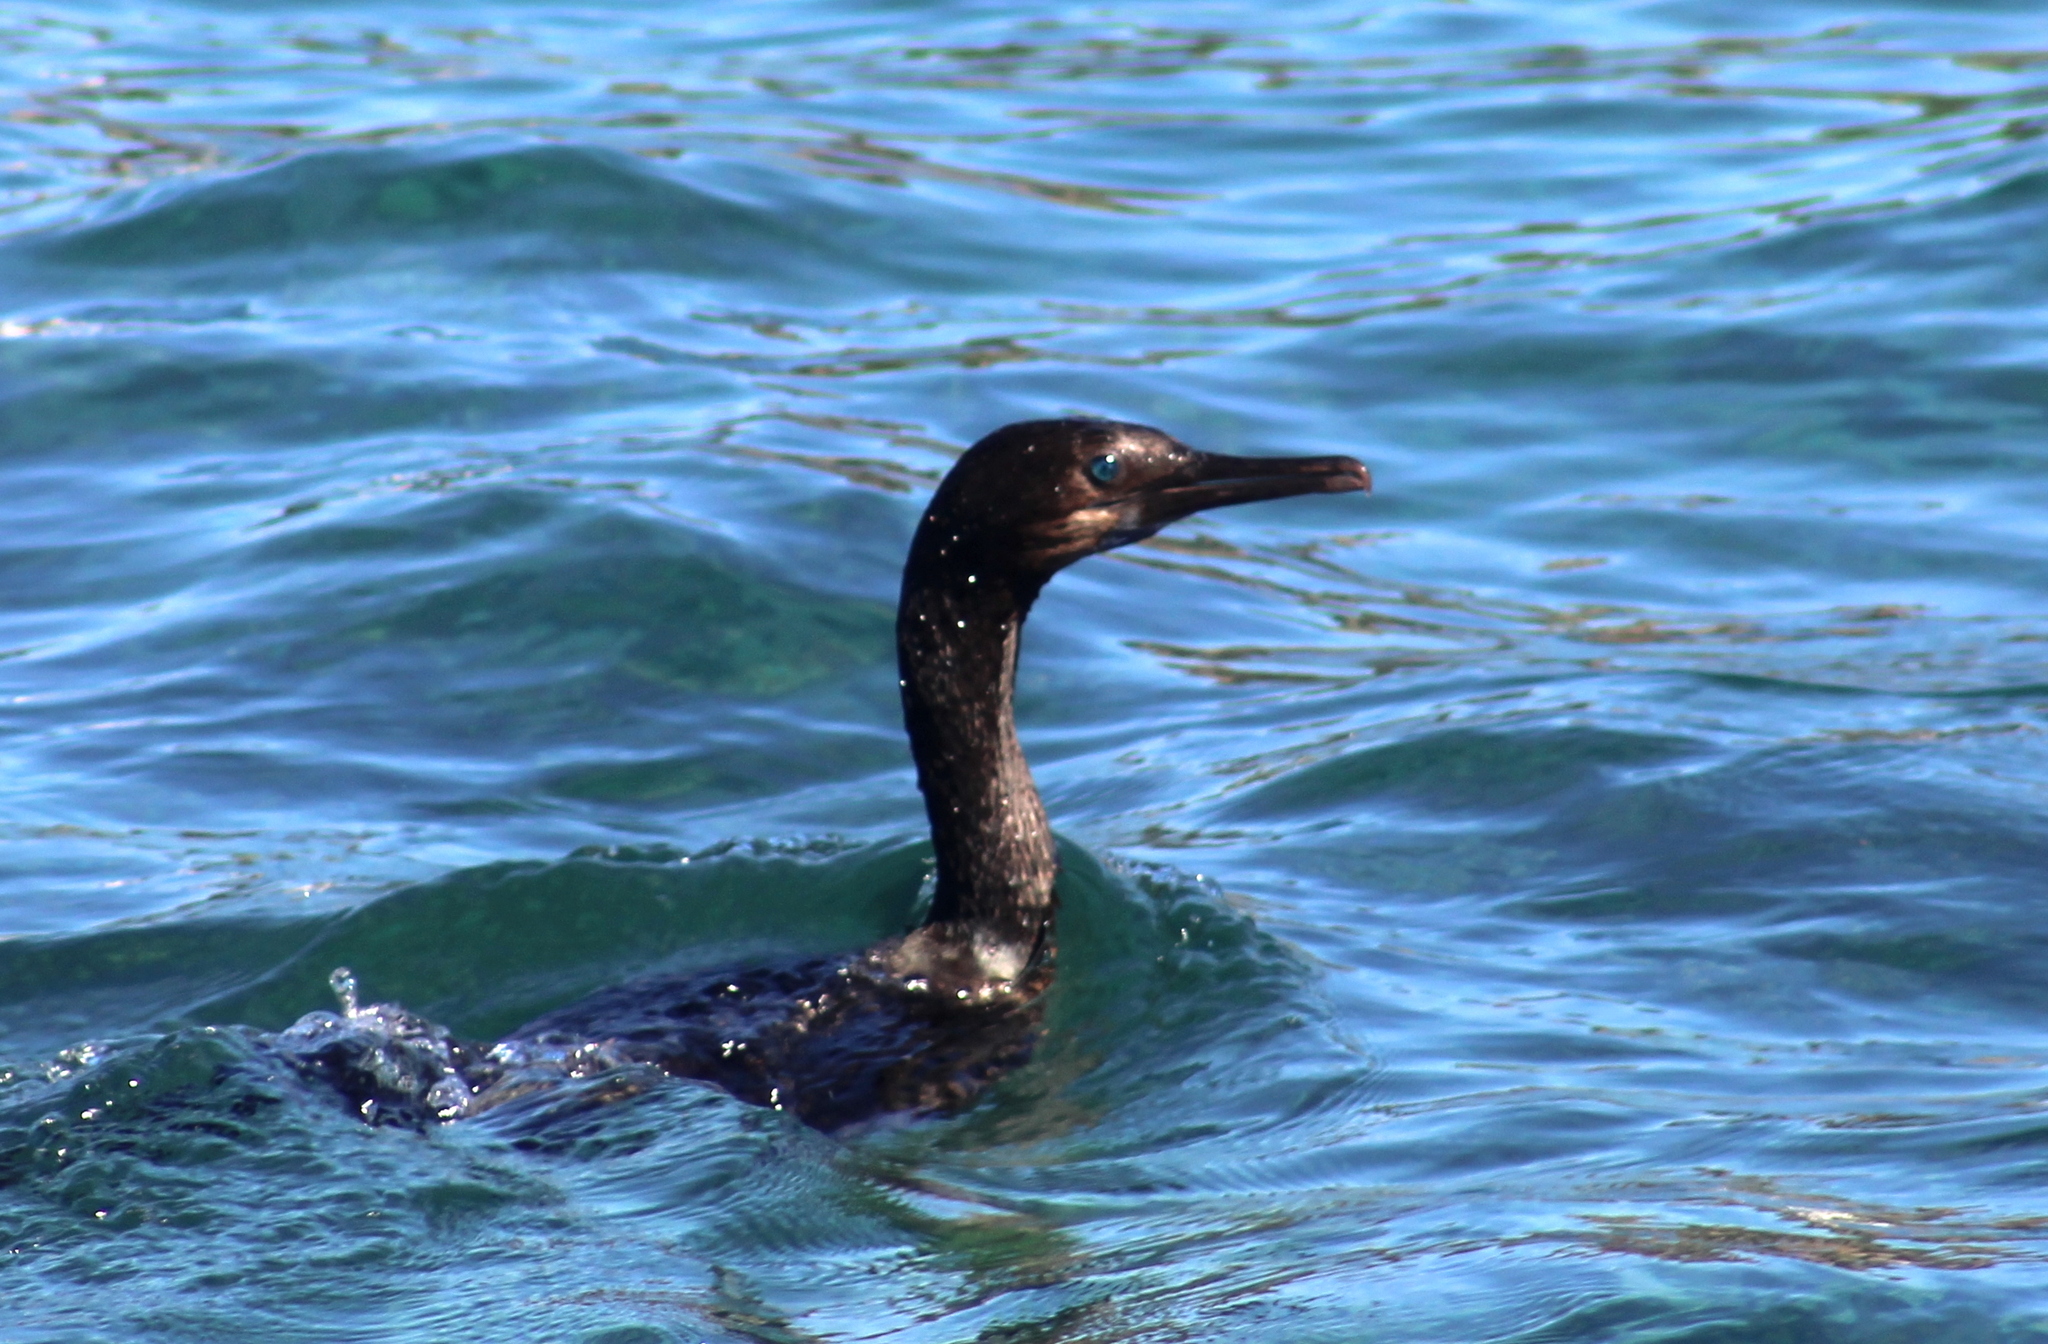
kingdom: Animalia
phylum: Chordata
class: Aves
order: Suliformes
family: Phalacrocoracidae
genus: Urile
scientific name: Urile penicillatus
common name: Brandt's cormorant
